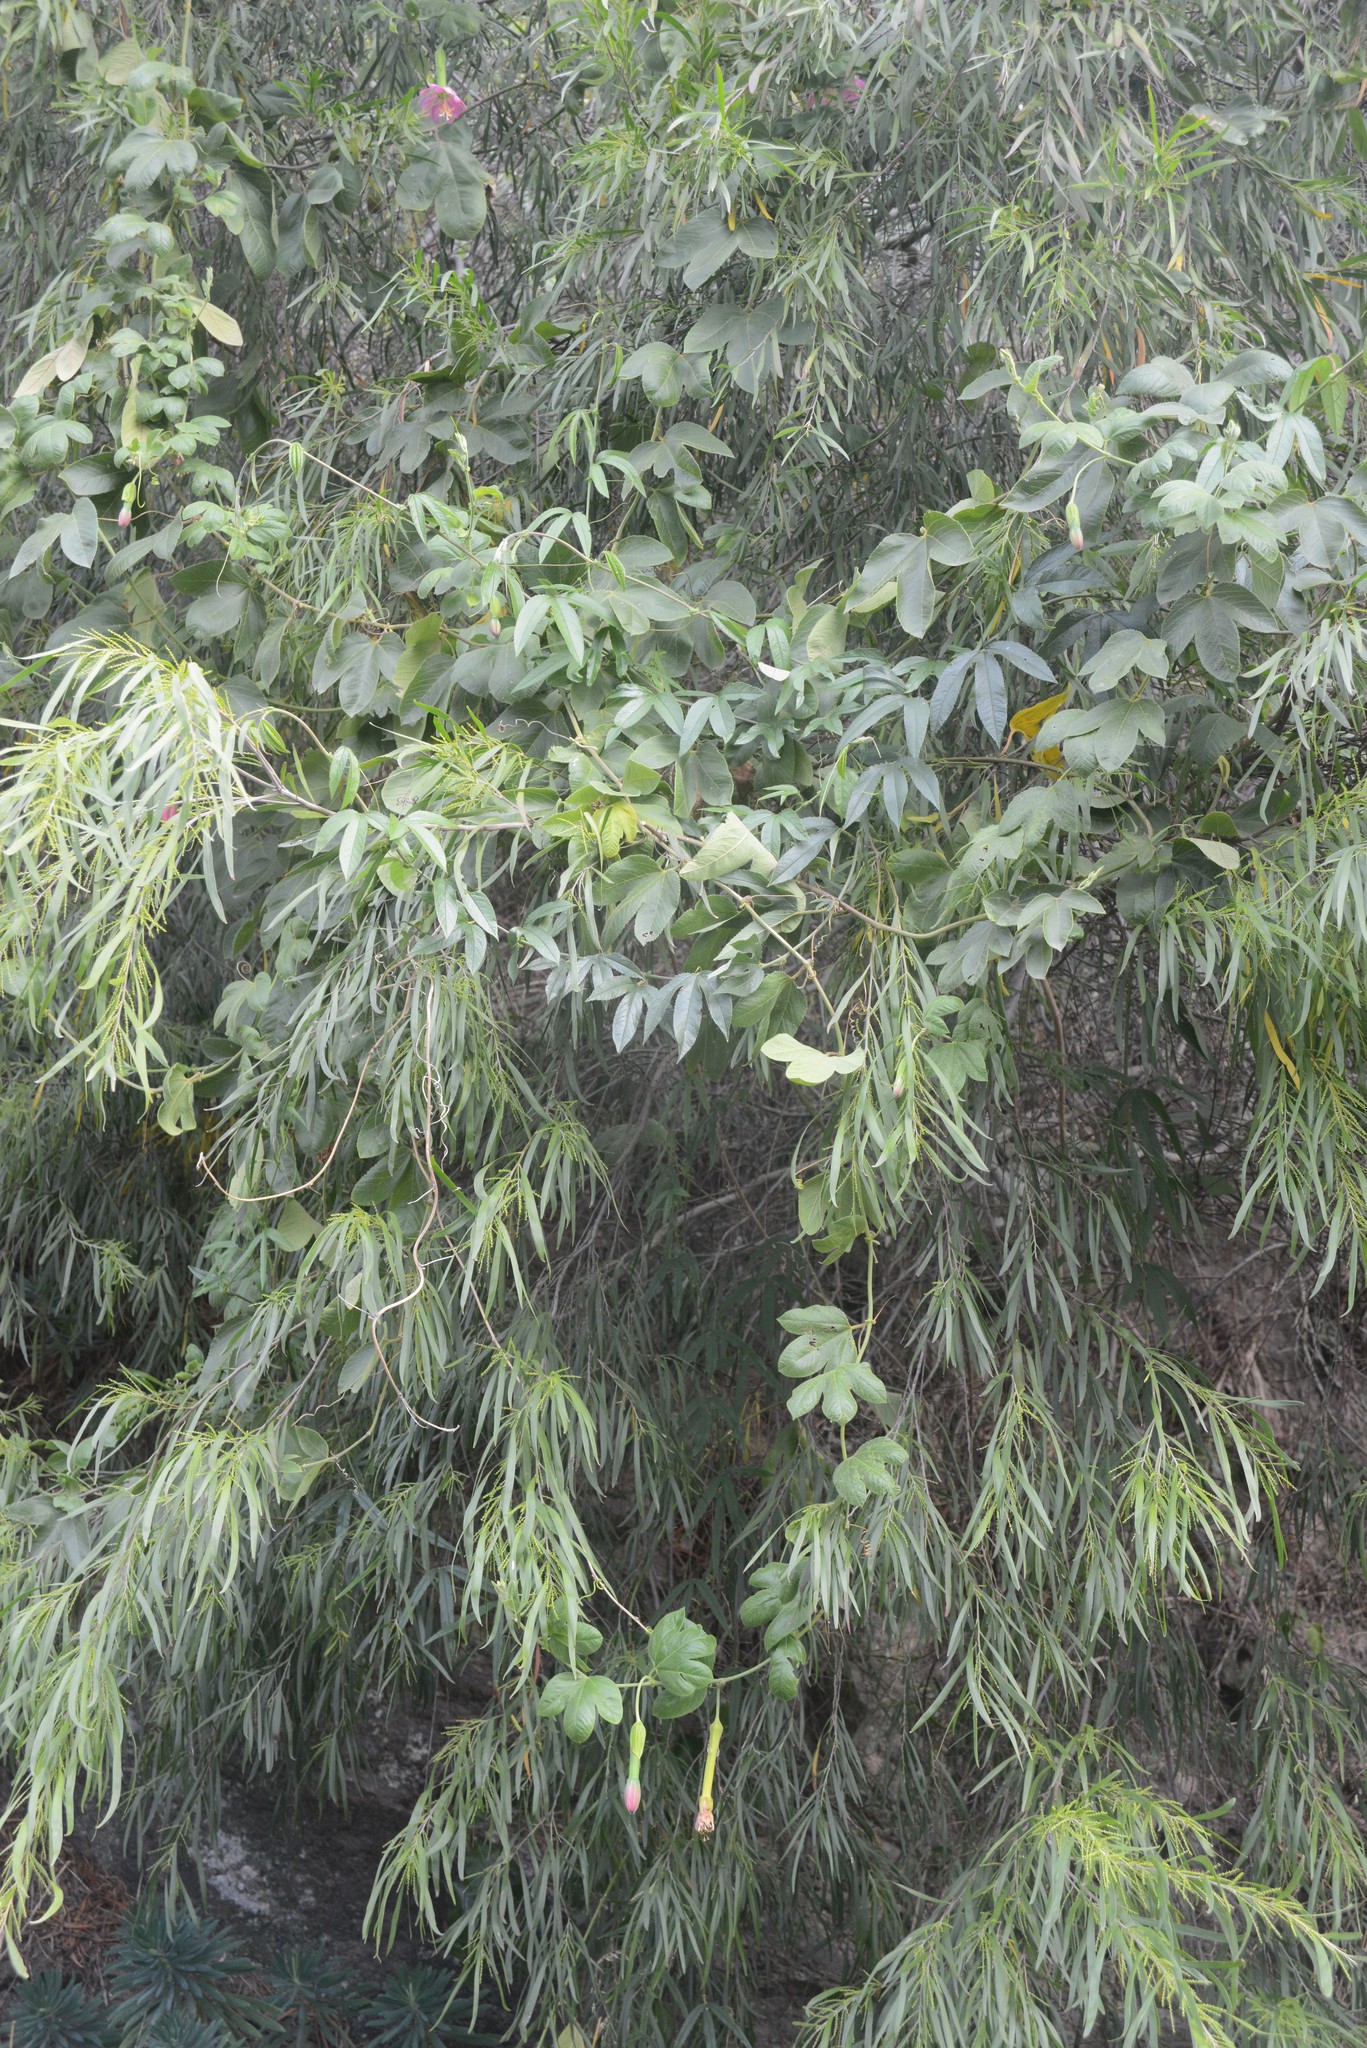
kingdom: Plantae
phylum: Tracheophyta
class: Magnoliopsida
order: Malpighiales
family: Passifloraceae
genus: Passiflora
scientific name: Passiflora tripartita
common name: Banana poka
